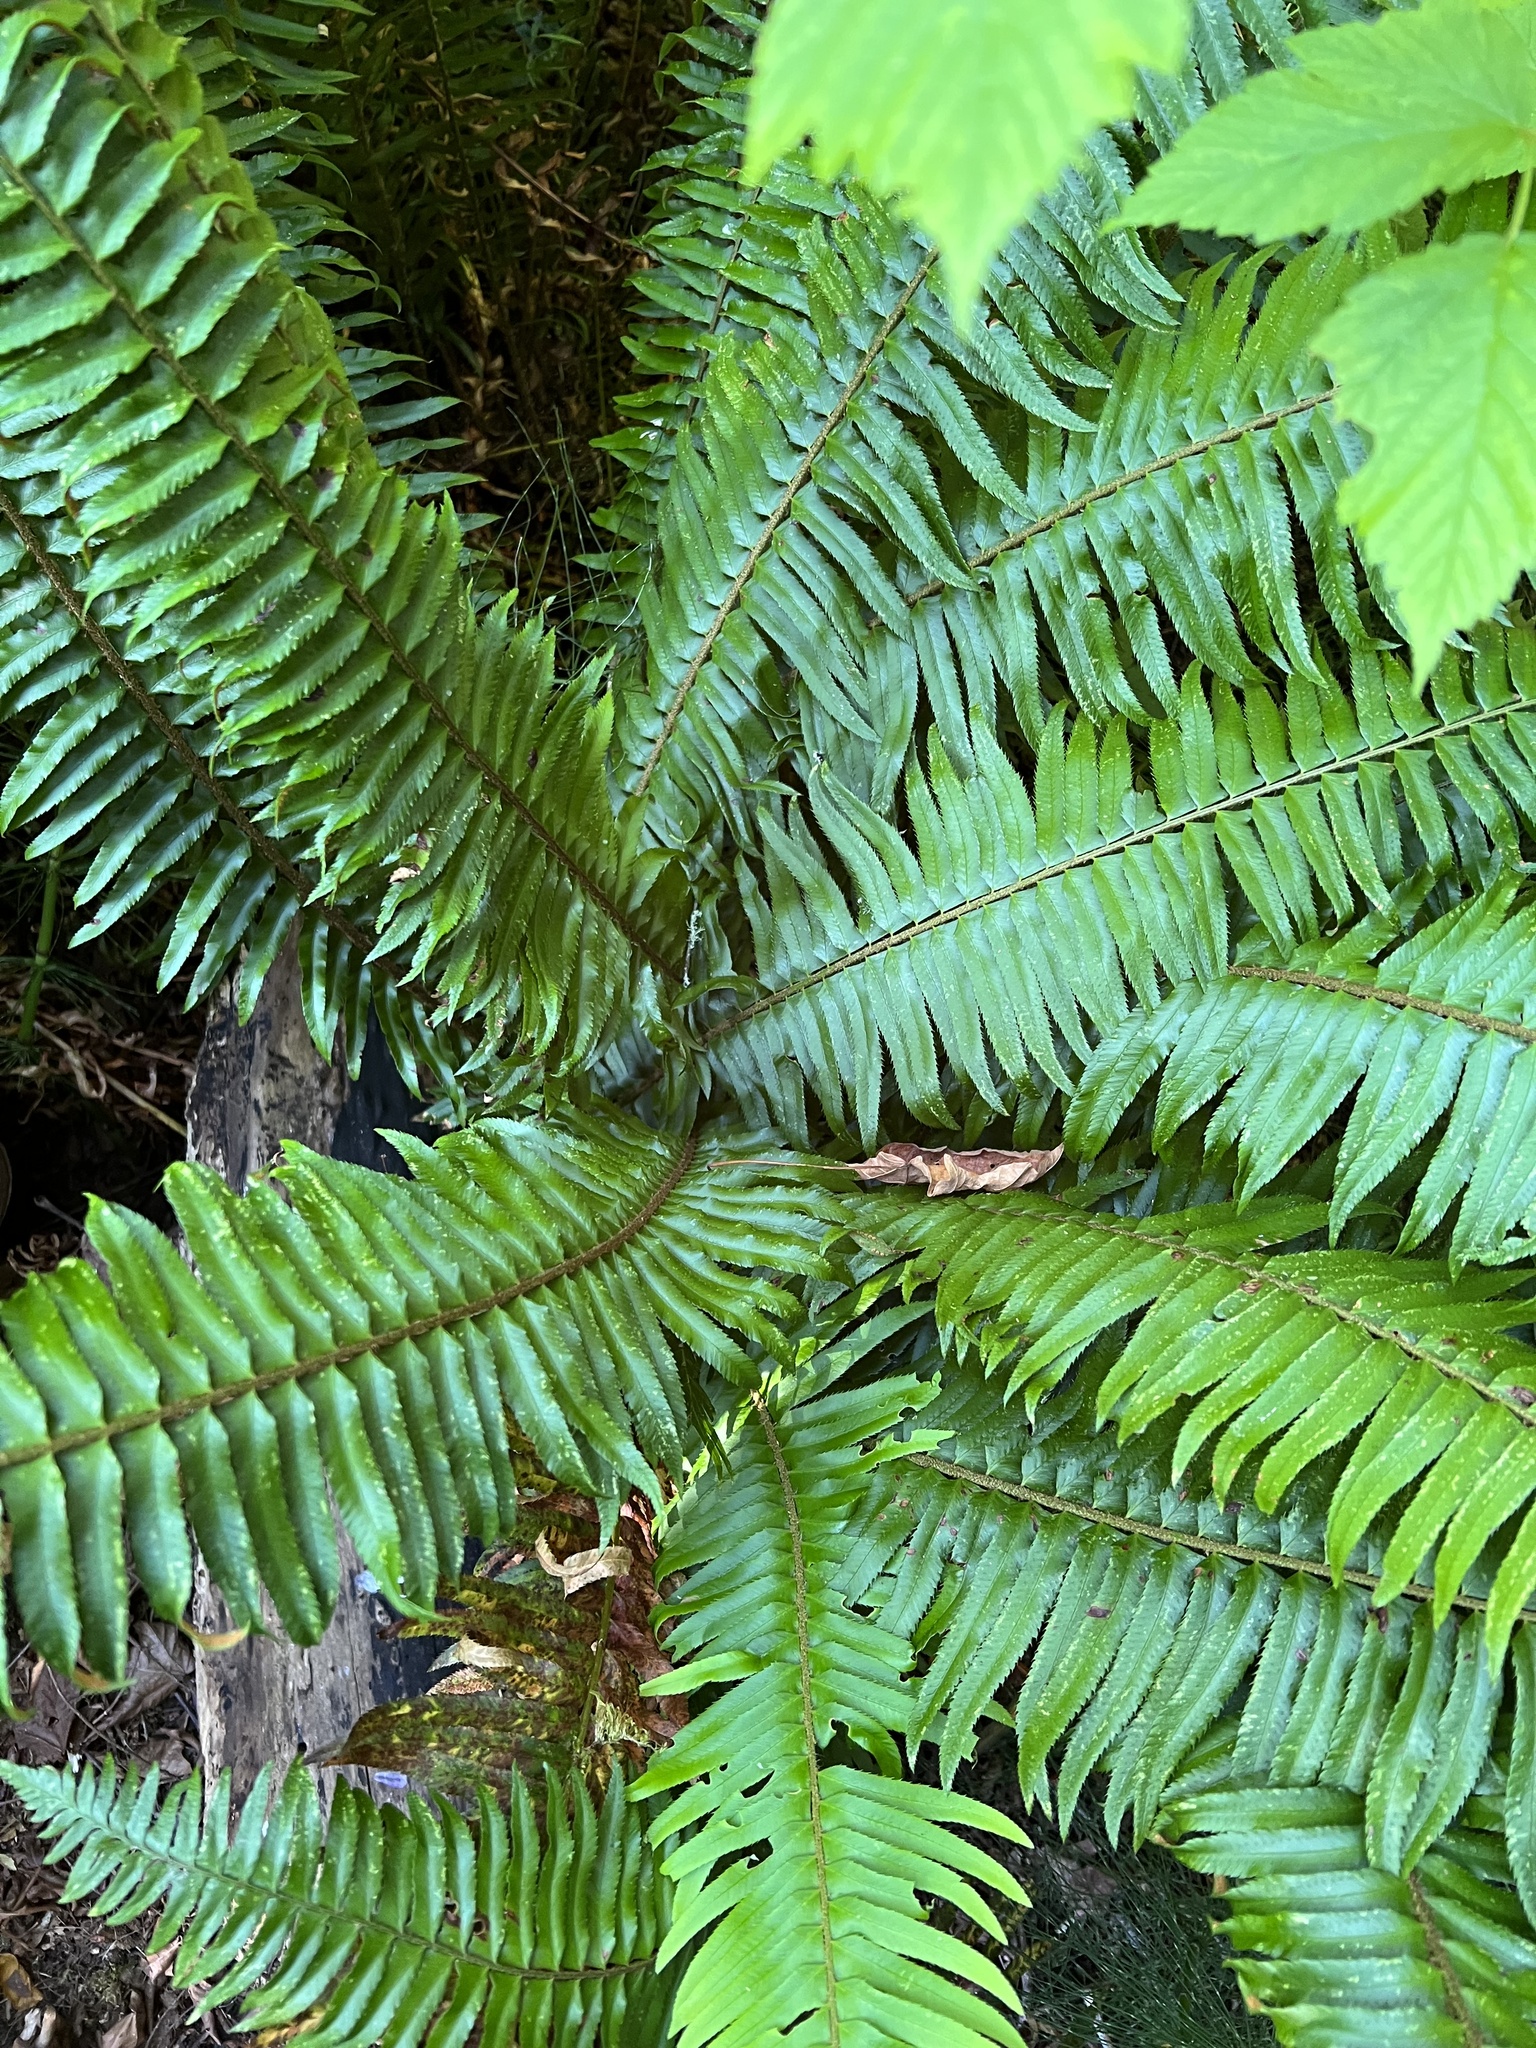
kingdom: Plantae
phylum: Tracheophyta
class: Polypodiopsida
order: Polypodiales
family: Dryopteridaceae
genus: Polystichum
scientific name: Polystichum munitum
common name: Western sword-fern
